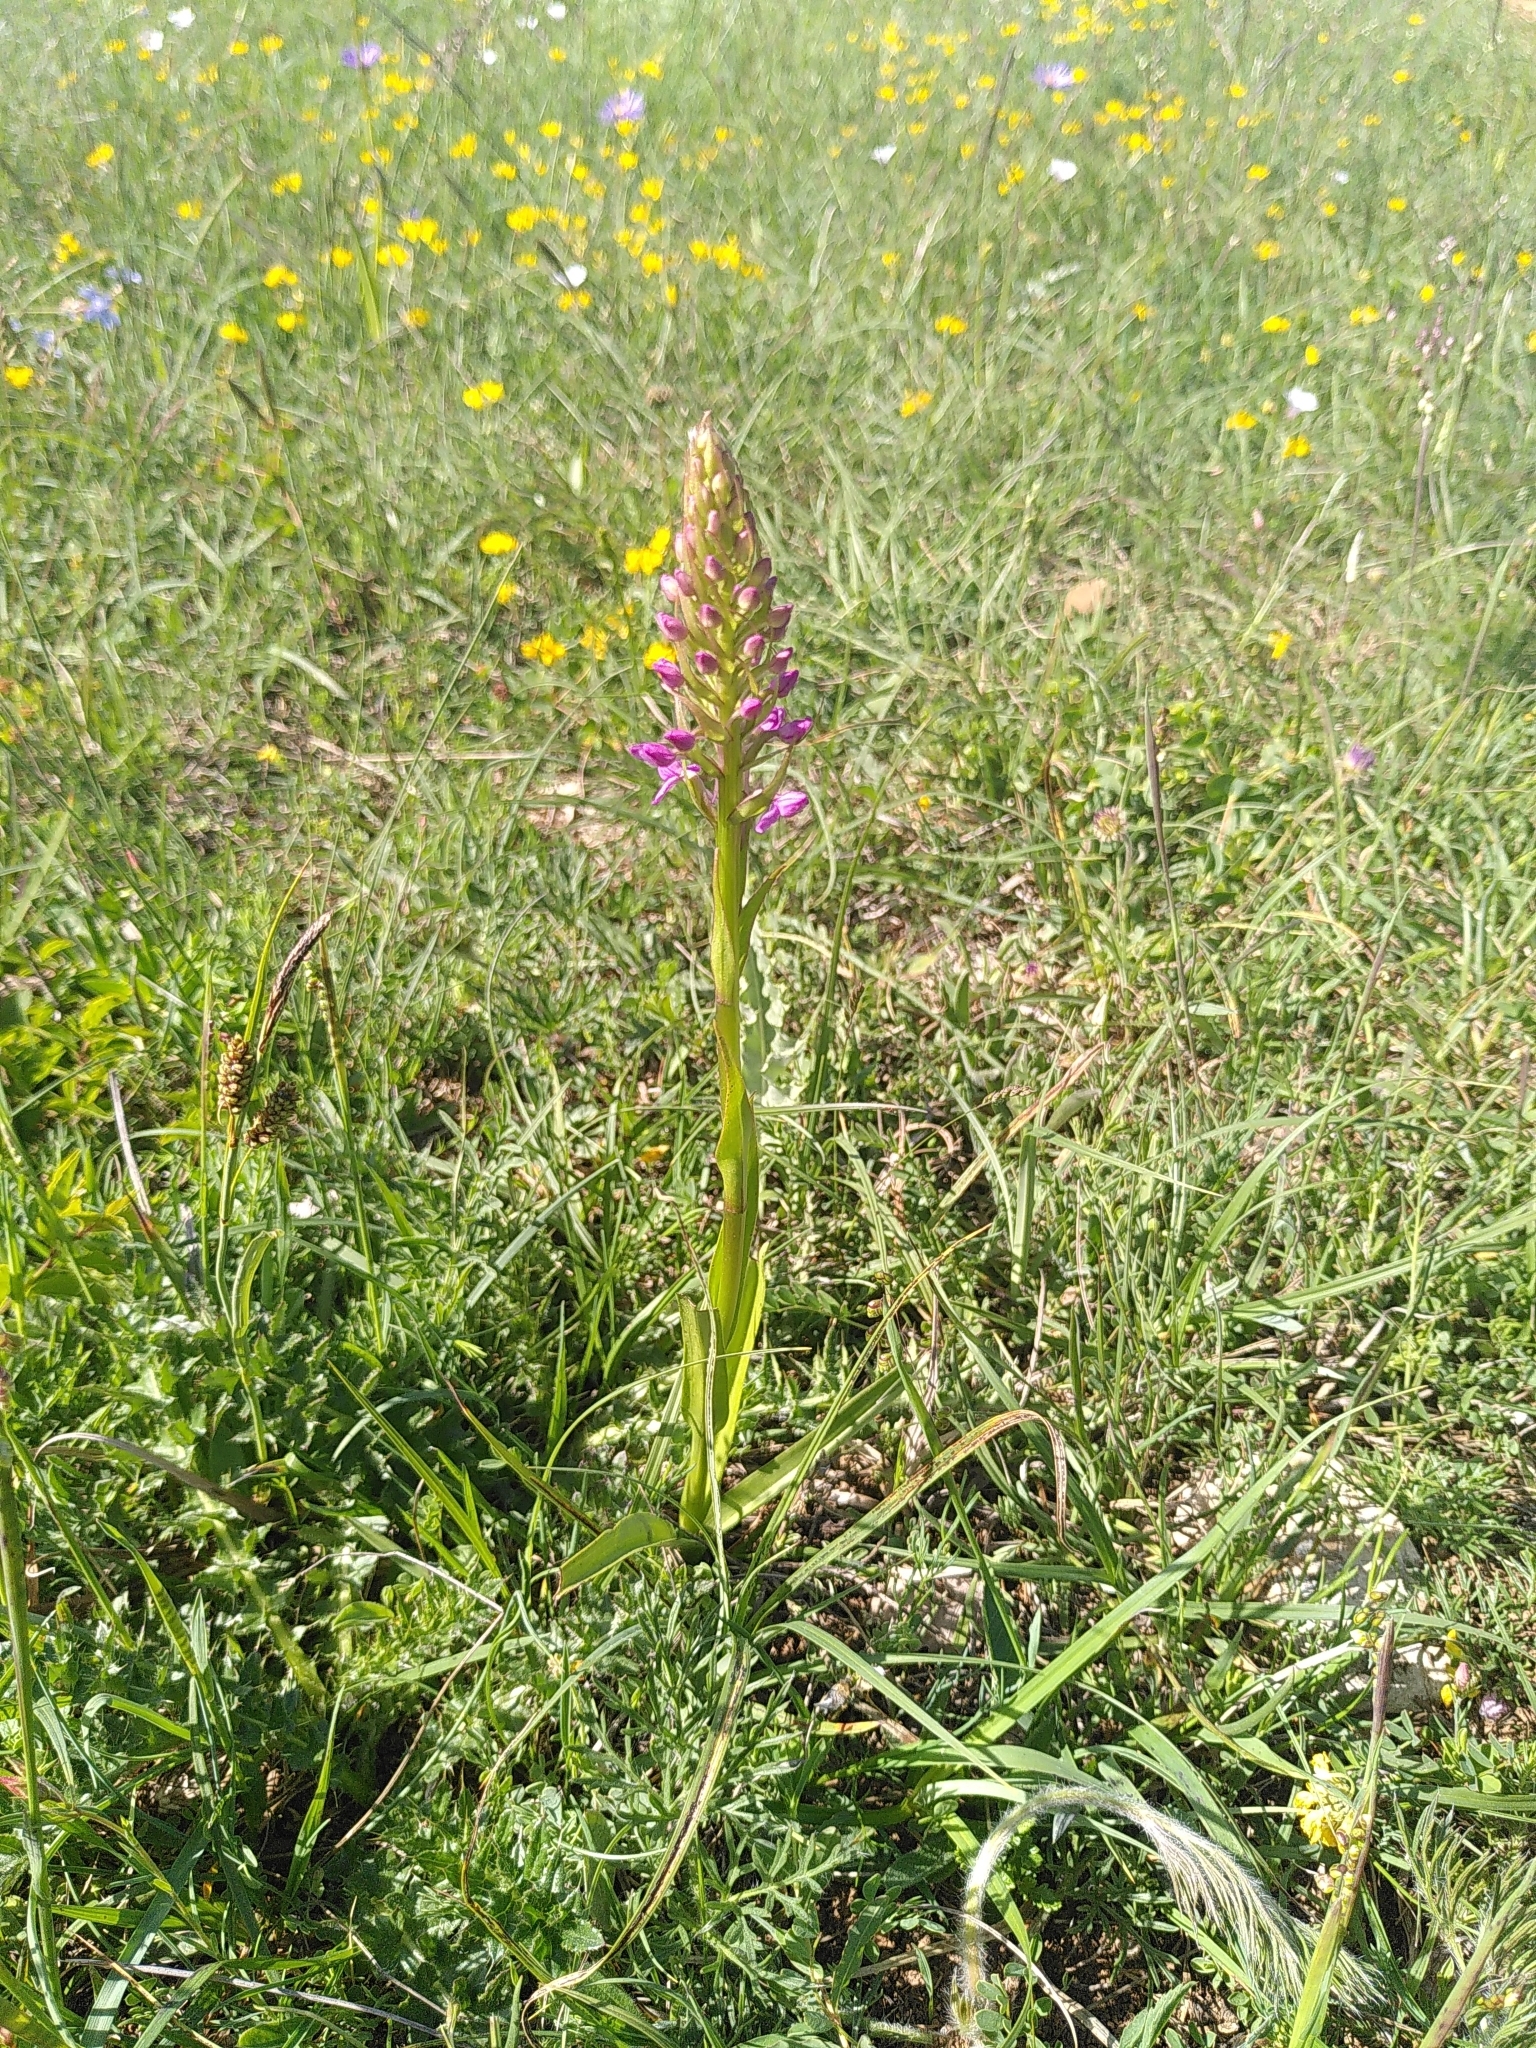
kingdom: Plantae
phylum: Tracheophyta
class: Liliopsida
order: Asparagales
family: Orchidaceae
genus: Gymnadenia
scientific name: Gymnadenia conopsea
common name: Fragrant orchid
